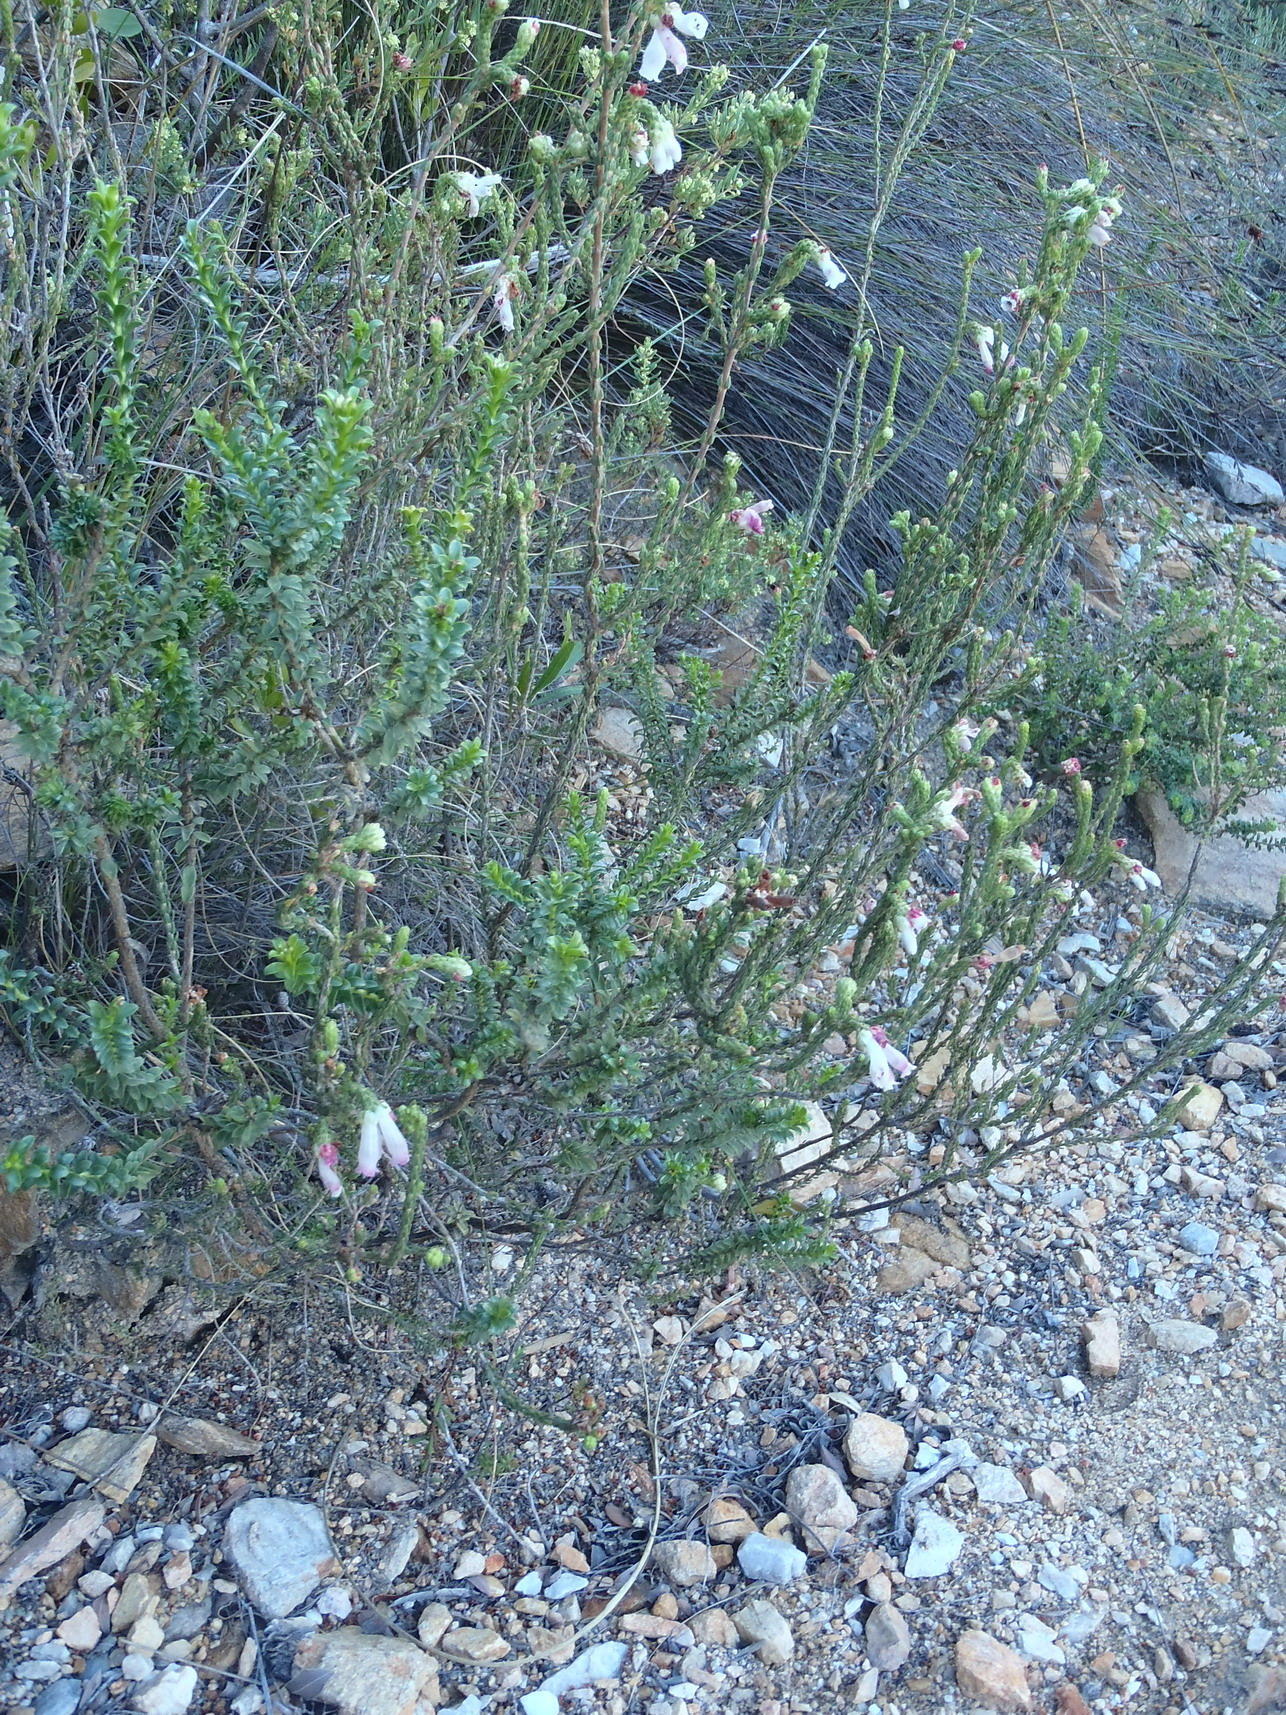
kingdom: Plantae
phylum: Tracheophyta
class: Magnoliopsida
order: Ericales
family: Ericaceae
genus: Erica
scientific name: Erica pectinifolia
